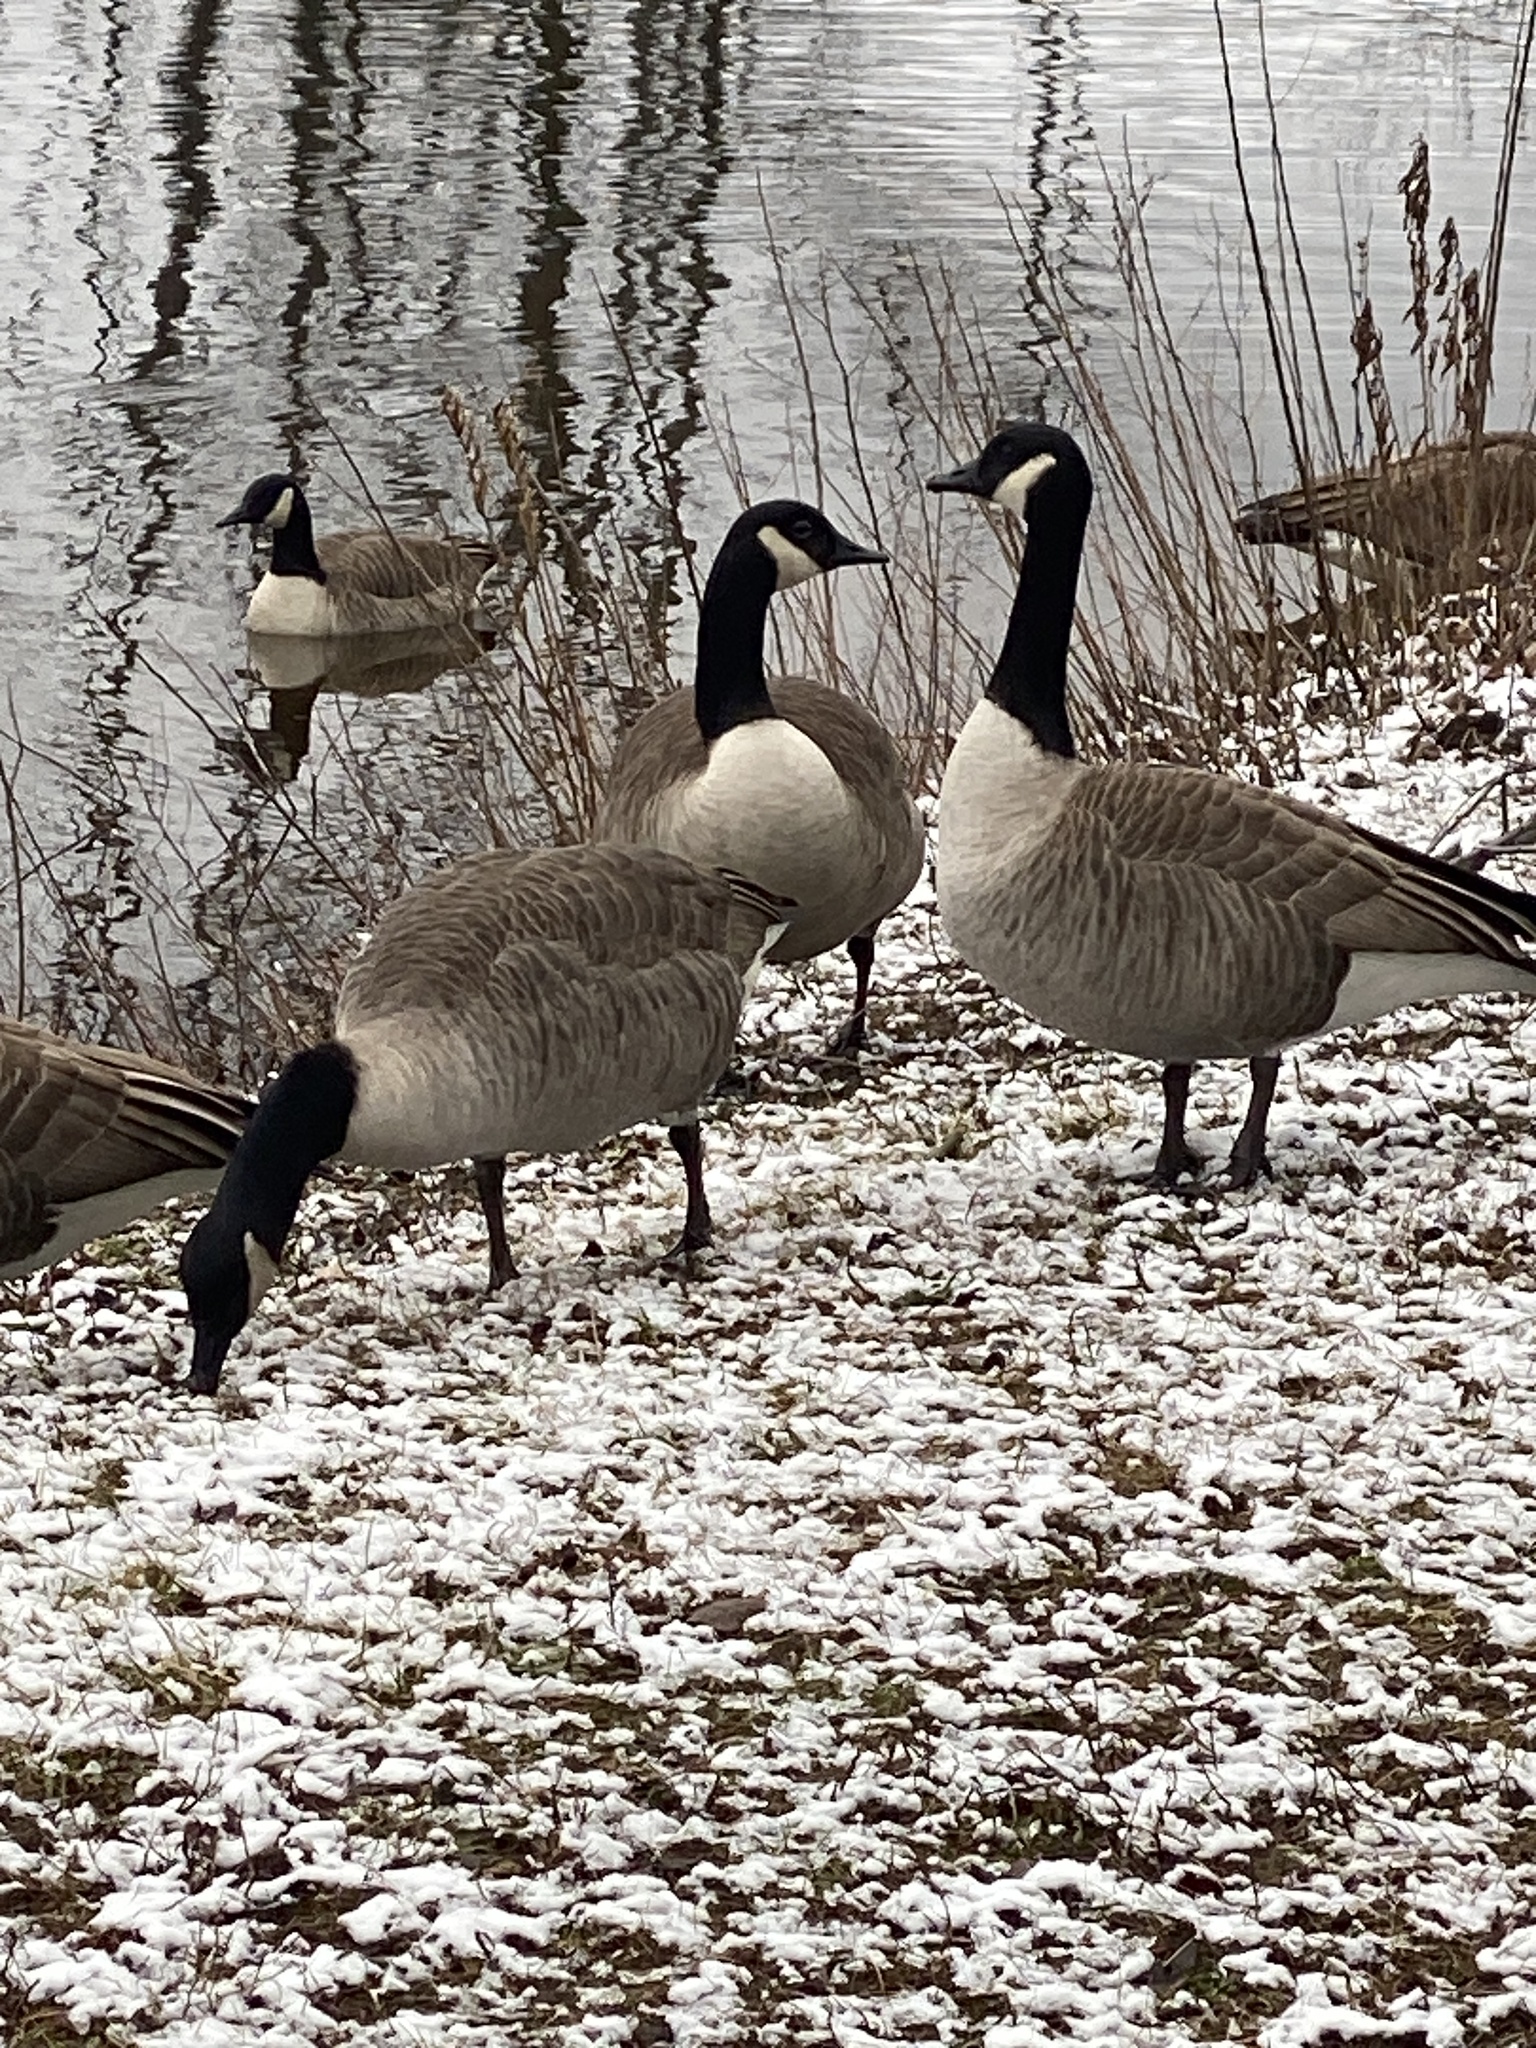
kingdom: Animalia
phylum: Chordata
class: Aves
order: Anseriformes
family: Anatidae
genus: Branta
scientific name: Branta canadensis
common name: Canada goose
